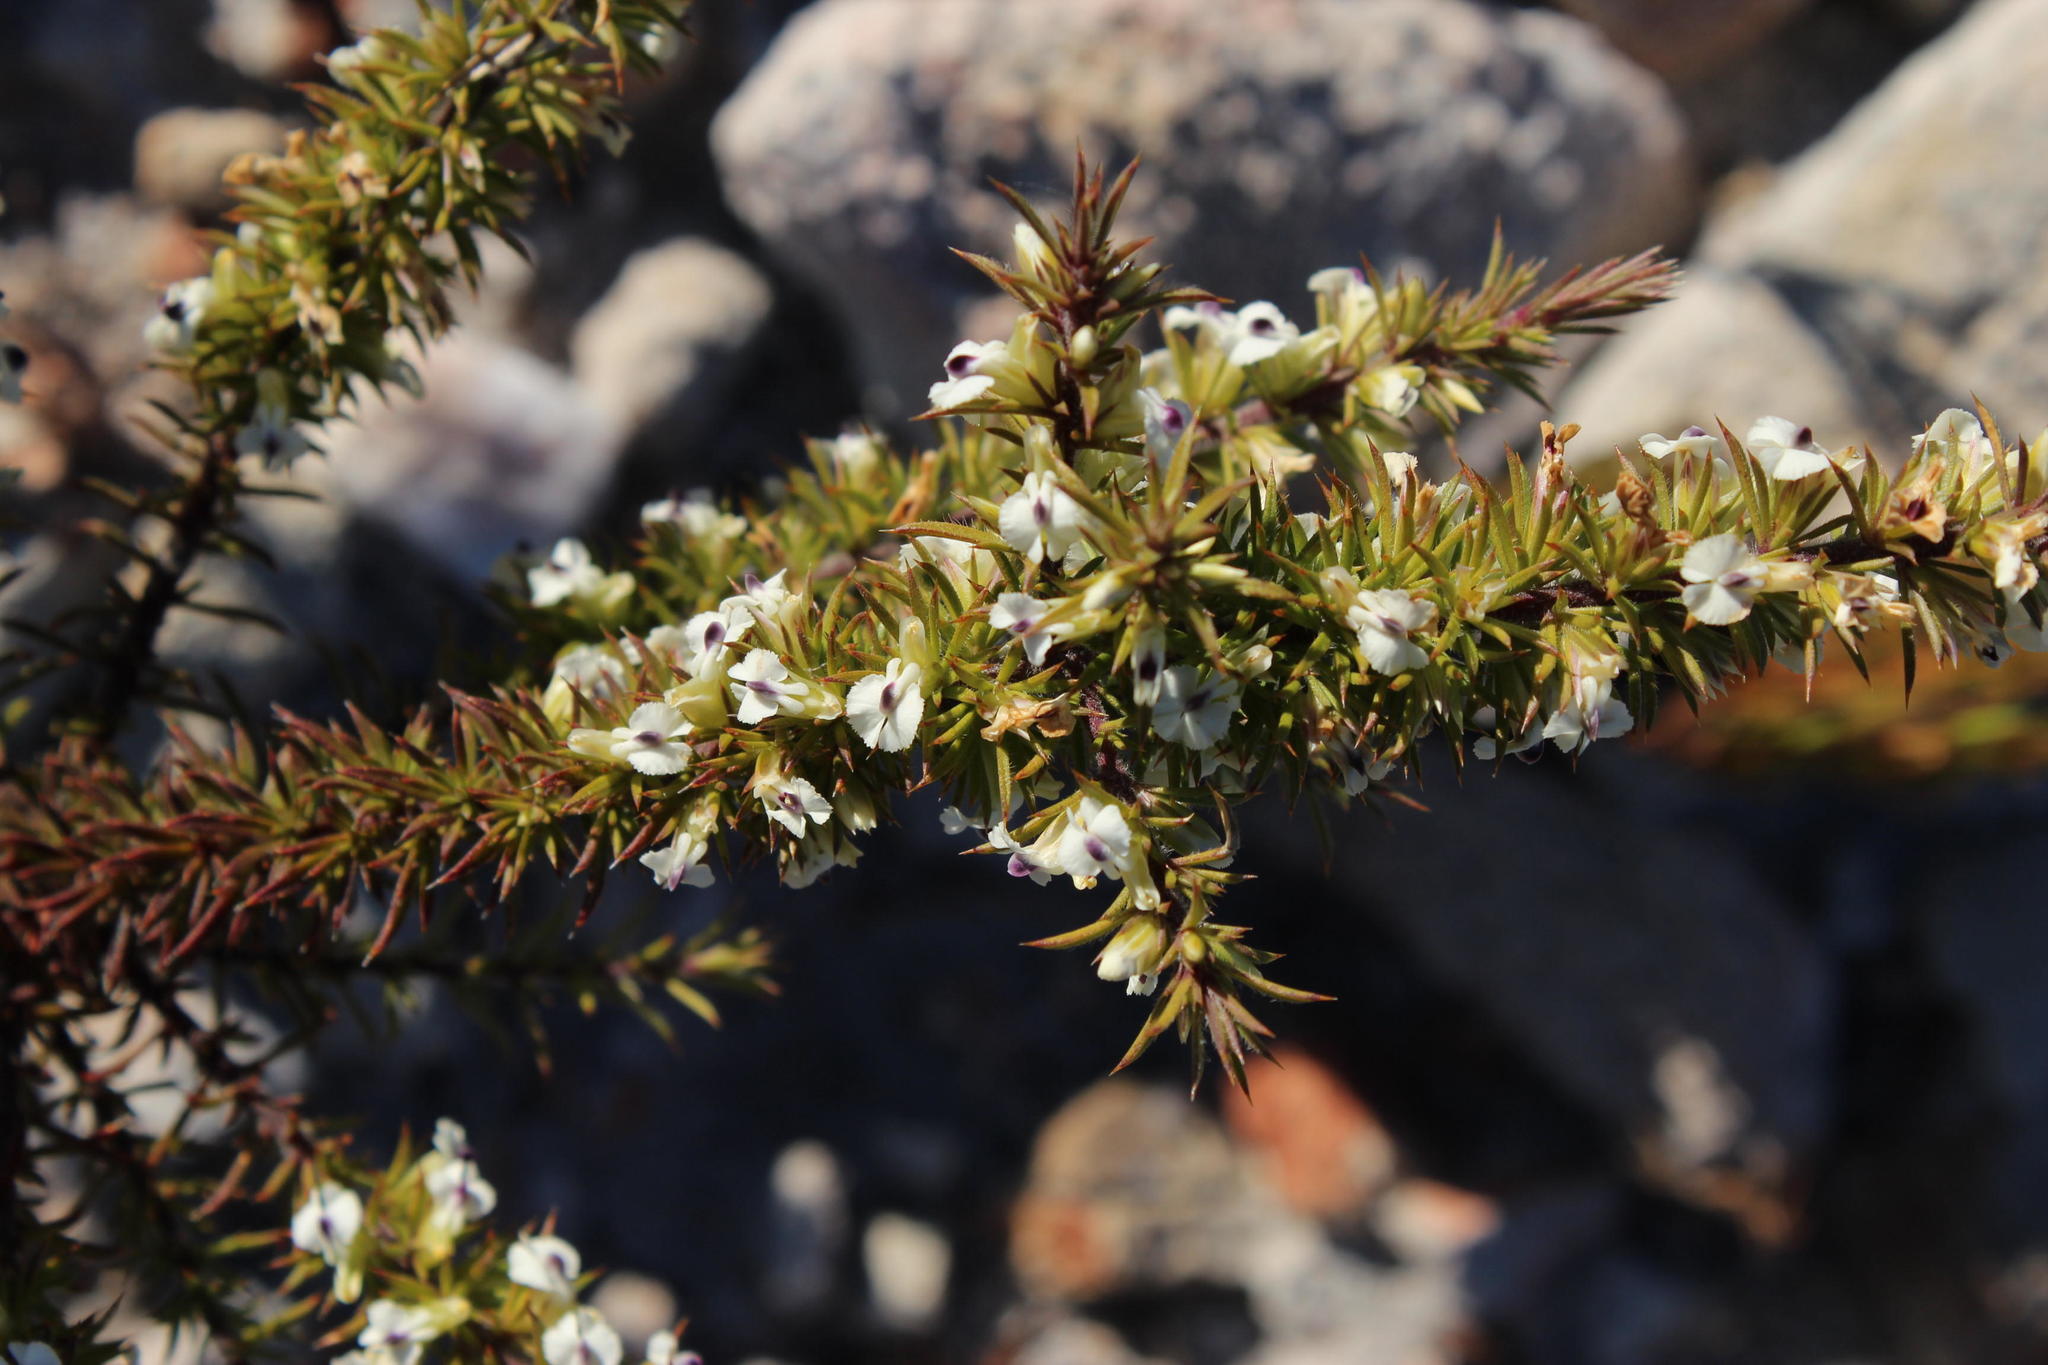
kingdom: Plantae
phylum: Tracheophyta
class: Magnoliopsida
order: Fabales
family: Polygalaceae
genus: Muraltia
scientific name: Muraltia ericifolia
